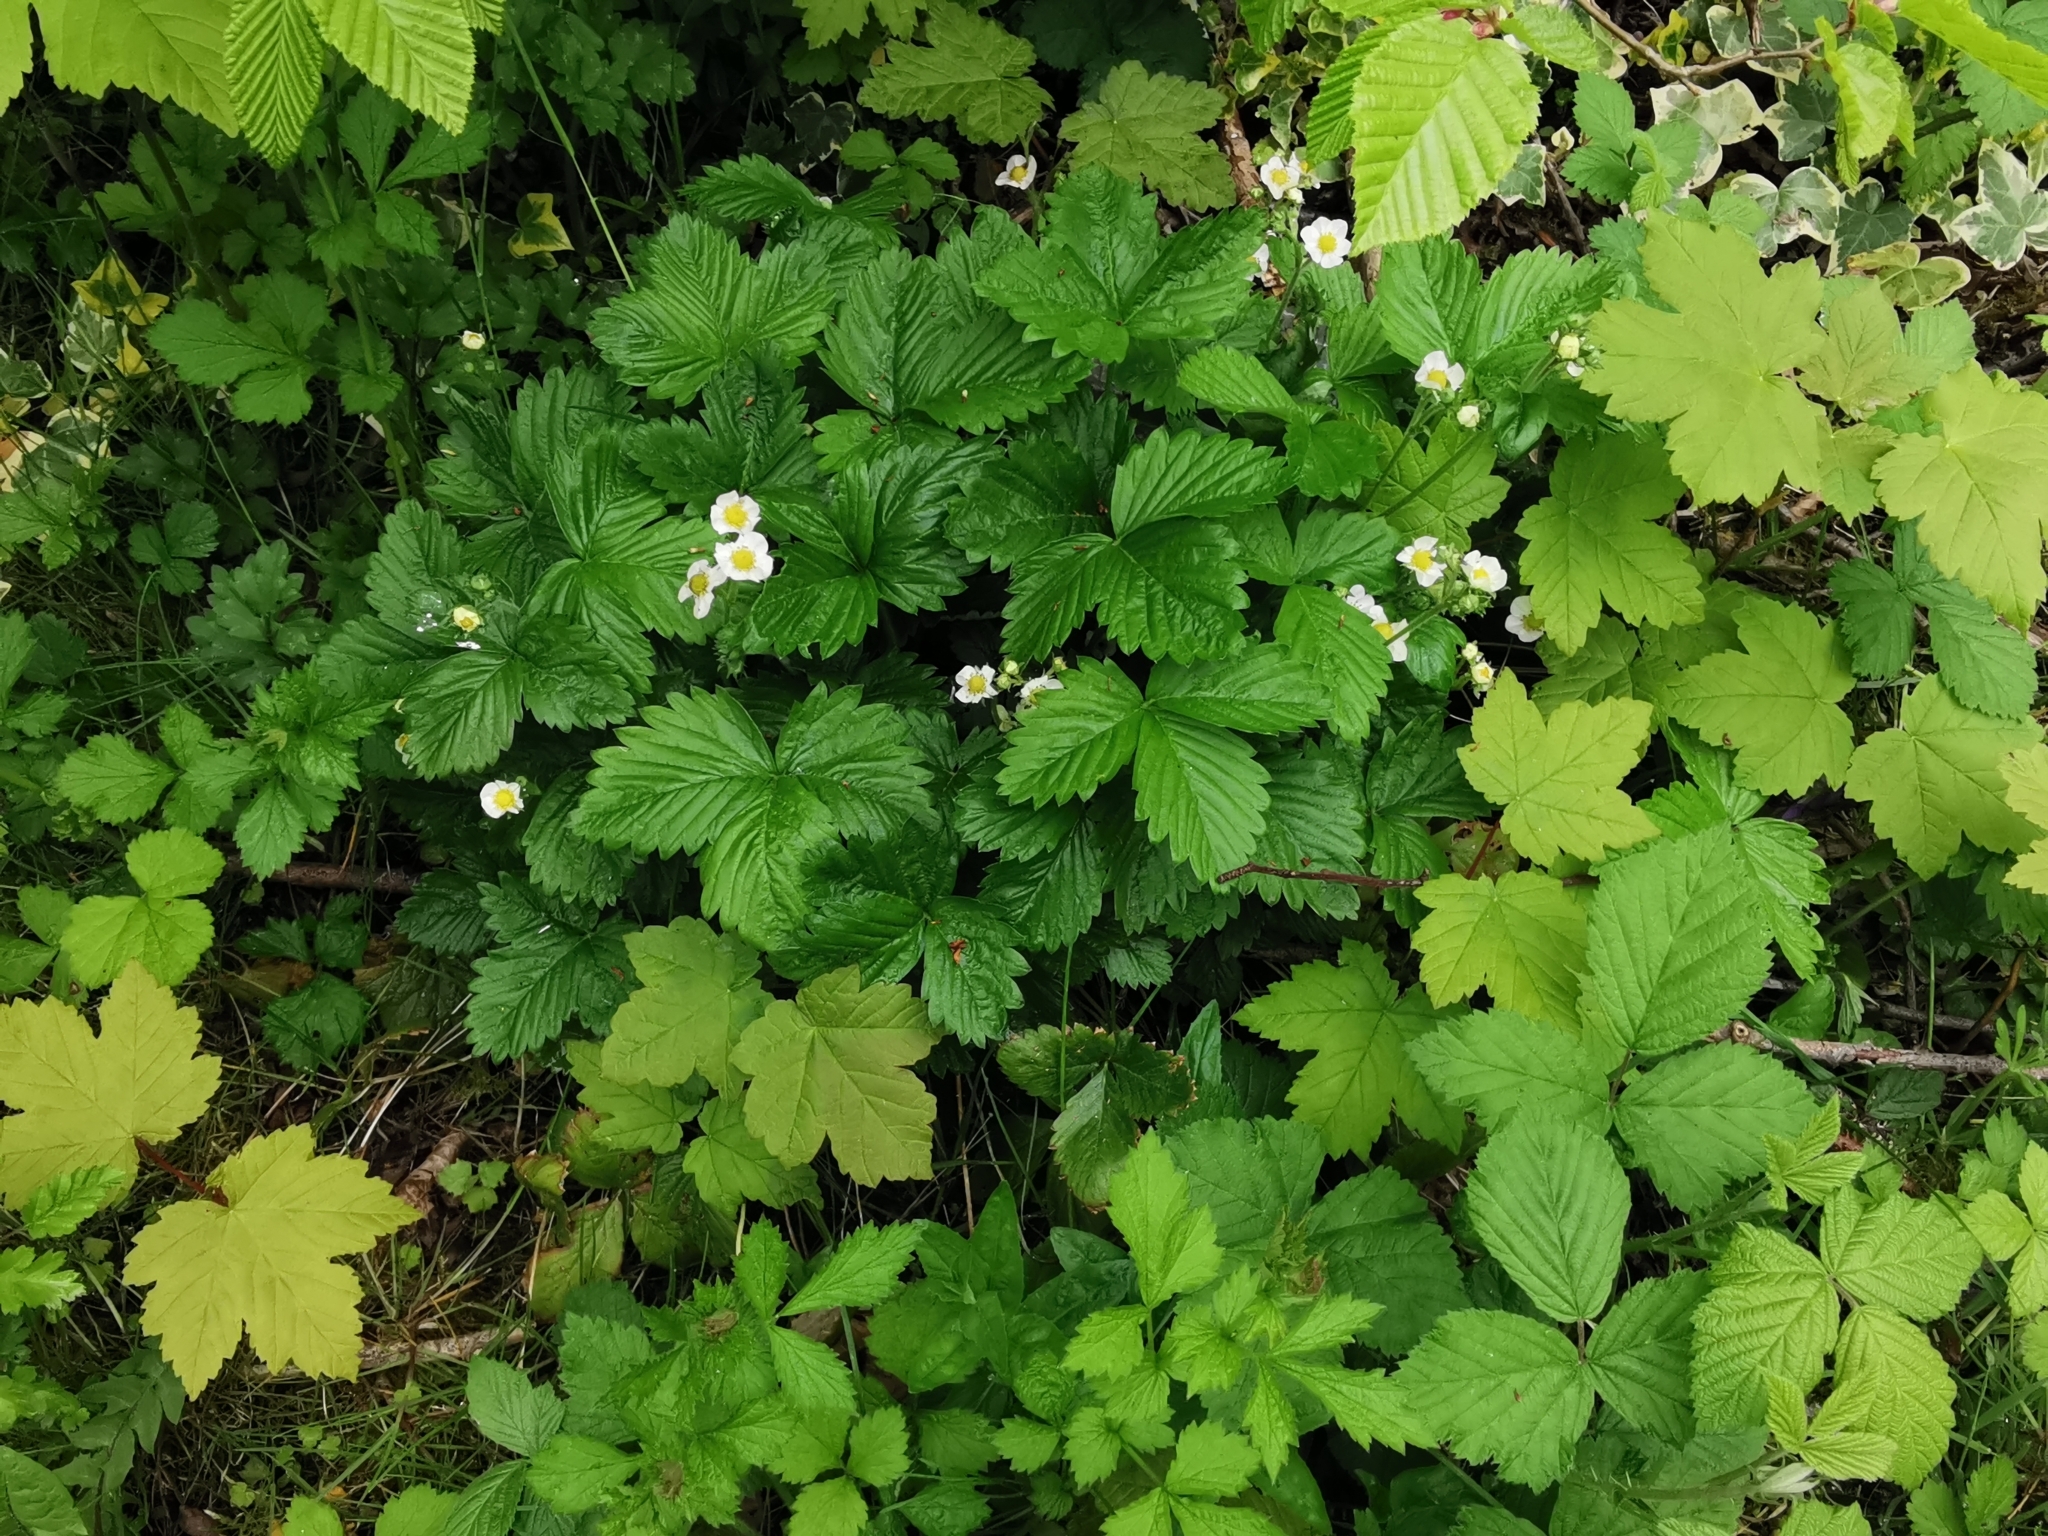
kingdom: Plantae
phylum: Tracheophyta
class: Magnoliopsida
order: Rosales
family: Rosaceae
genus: Fragaria
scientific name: Fragaria ananassa
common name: Garden strawberry
